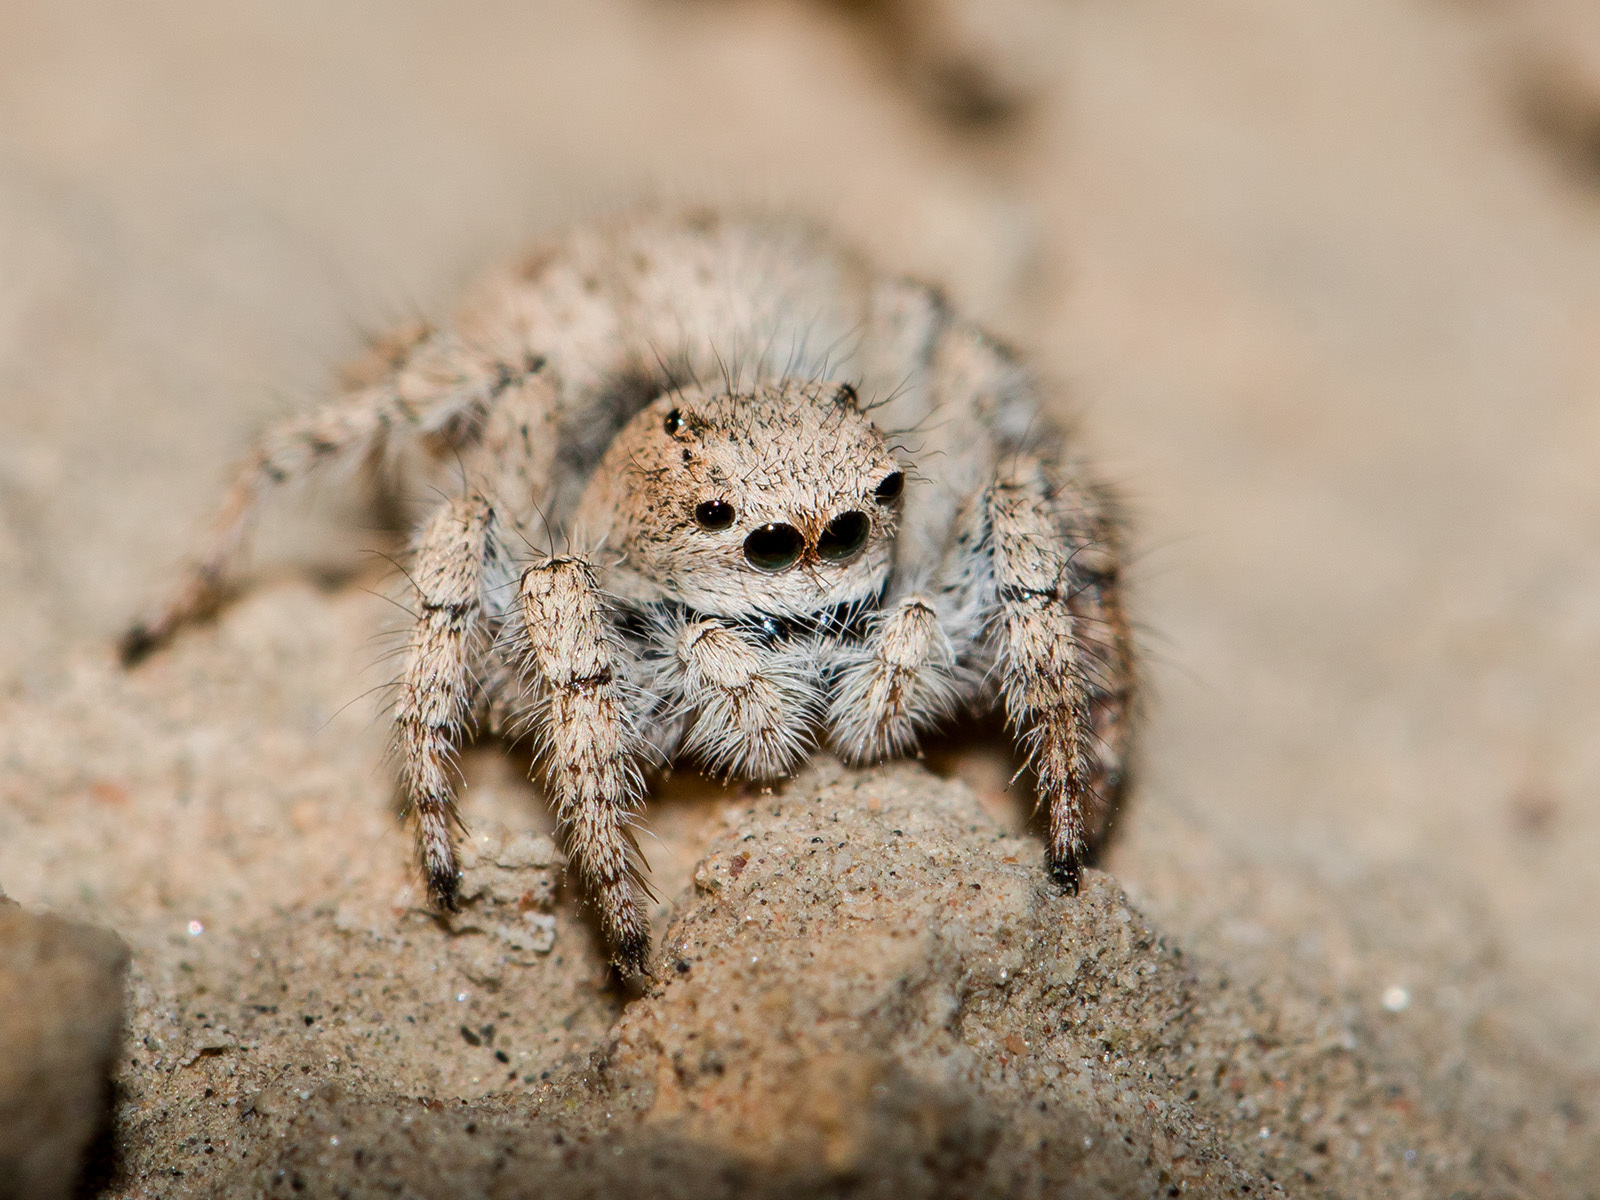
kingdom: Animalia
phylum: Arthropoda
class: Arachnida
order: Araneae
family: Salticidae
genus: Aelurillus
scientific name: Aelurillus concolor
